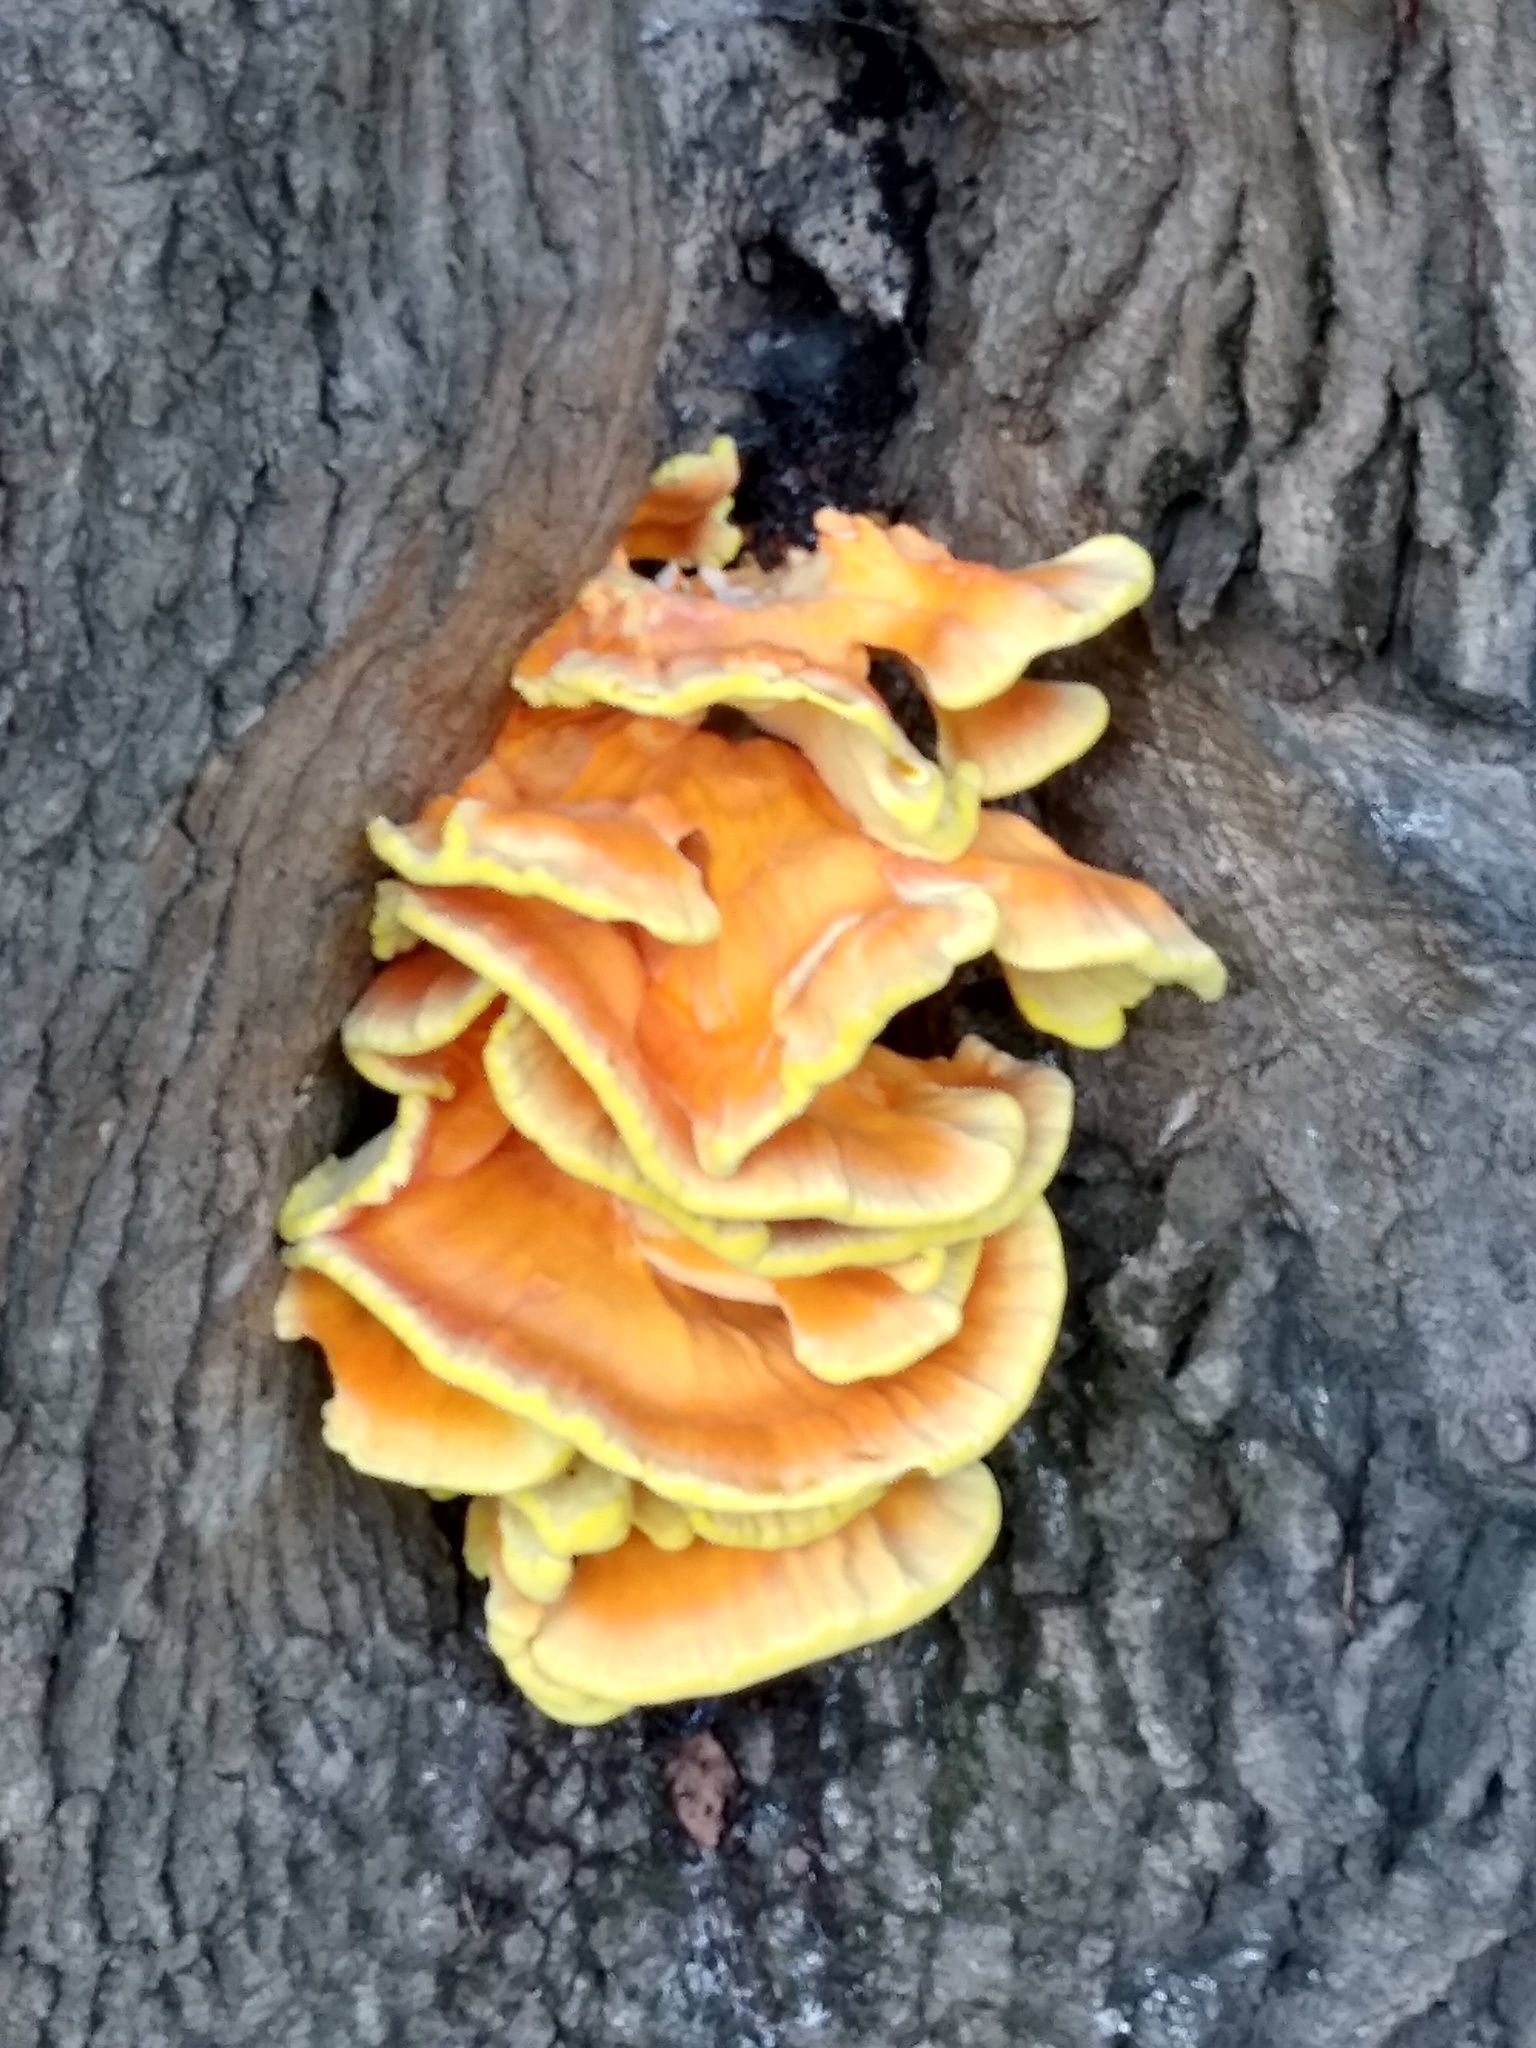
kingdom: Fungi
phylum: Basidiomycota
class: Agaricomycetes
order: Polyporales
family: Laetiporaceae
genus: Laetiporus
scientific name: Laetiporus sulphureus
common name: Chicken of the woods
